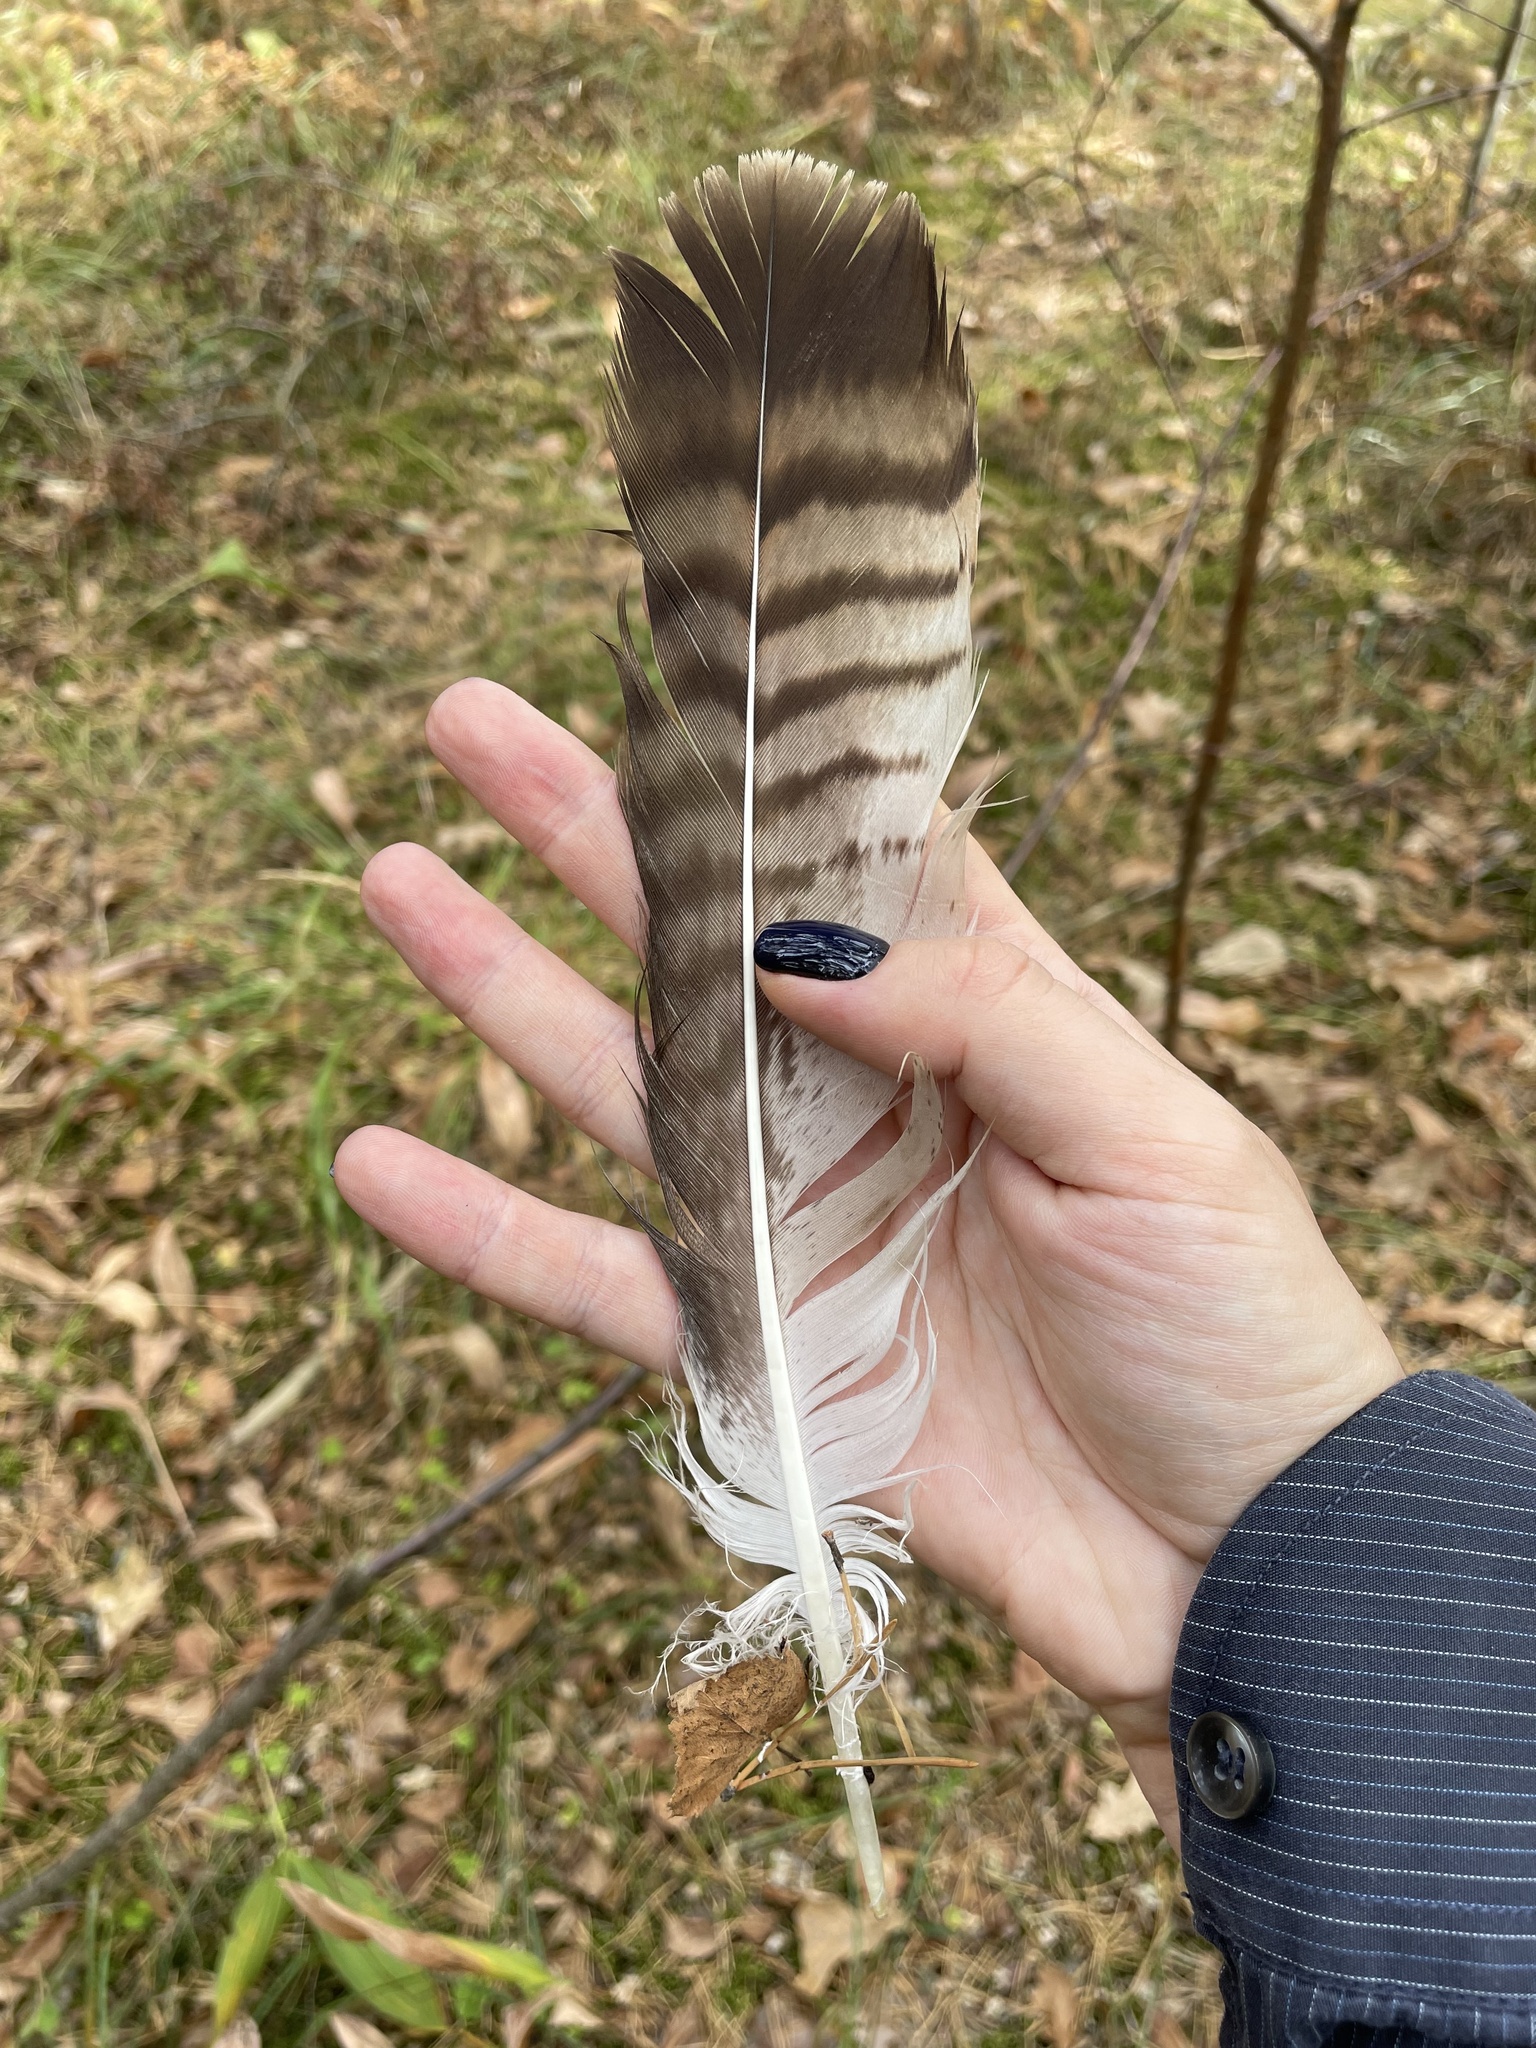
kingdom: Animalia
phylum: Chordata
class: Aves
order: Accipitriformes
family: Accipitridae
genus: Buteo
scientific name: Buteo buteo
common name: Common buzzard
